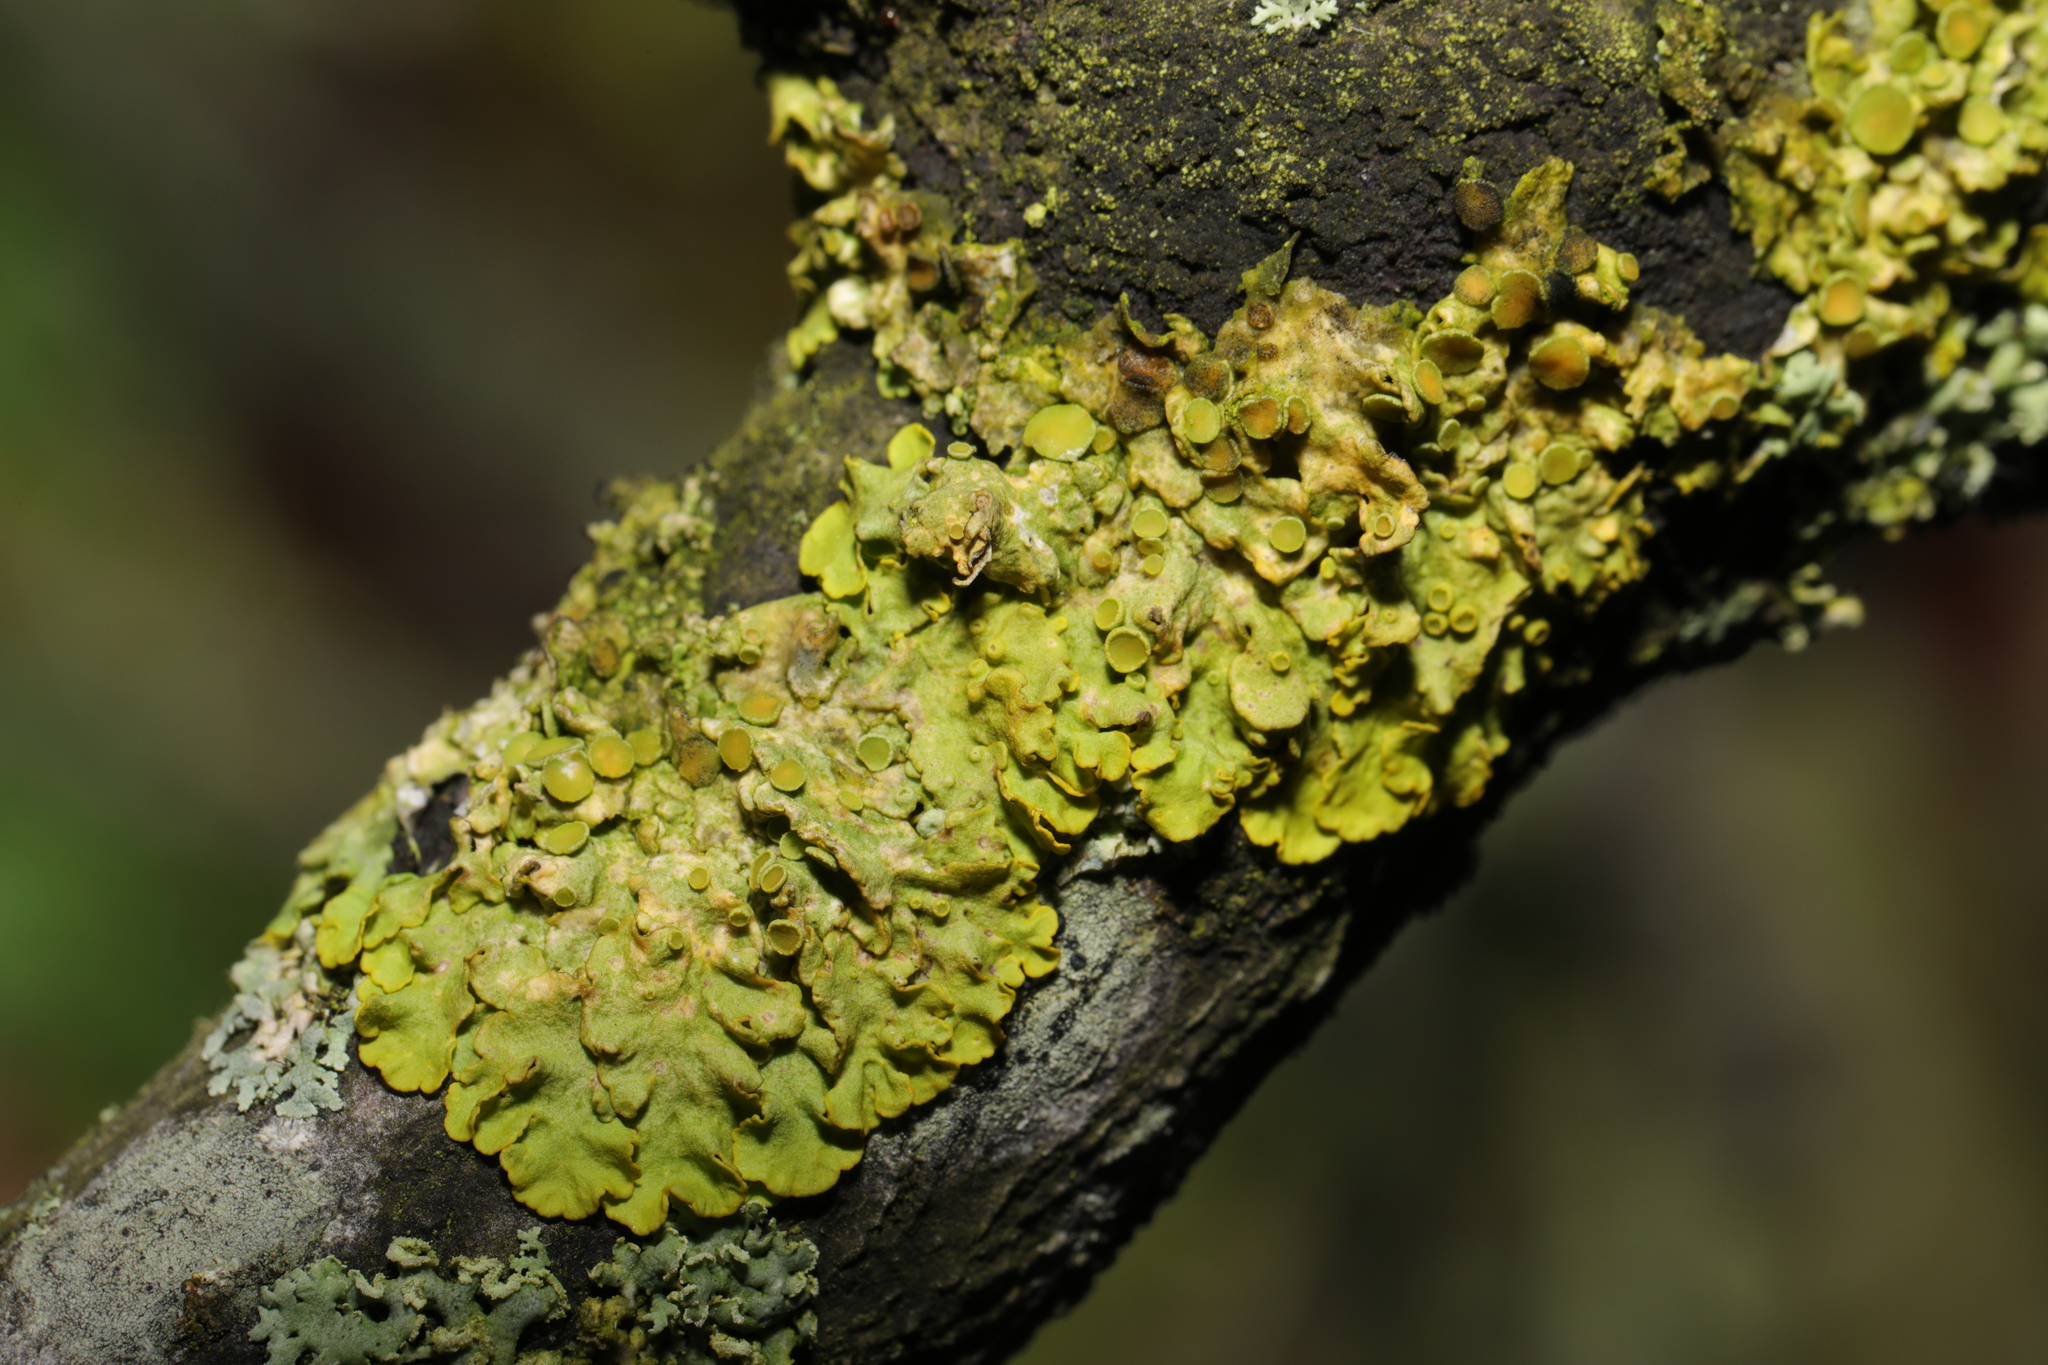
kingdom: Fungi
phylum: Ascomycota
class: Lecanoromycetes
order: Teloschistales
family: Teloschistaceae
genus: Xanthoria
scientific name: Xanthoria parietina
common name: Common orange lichen
